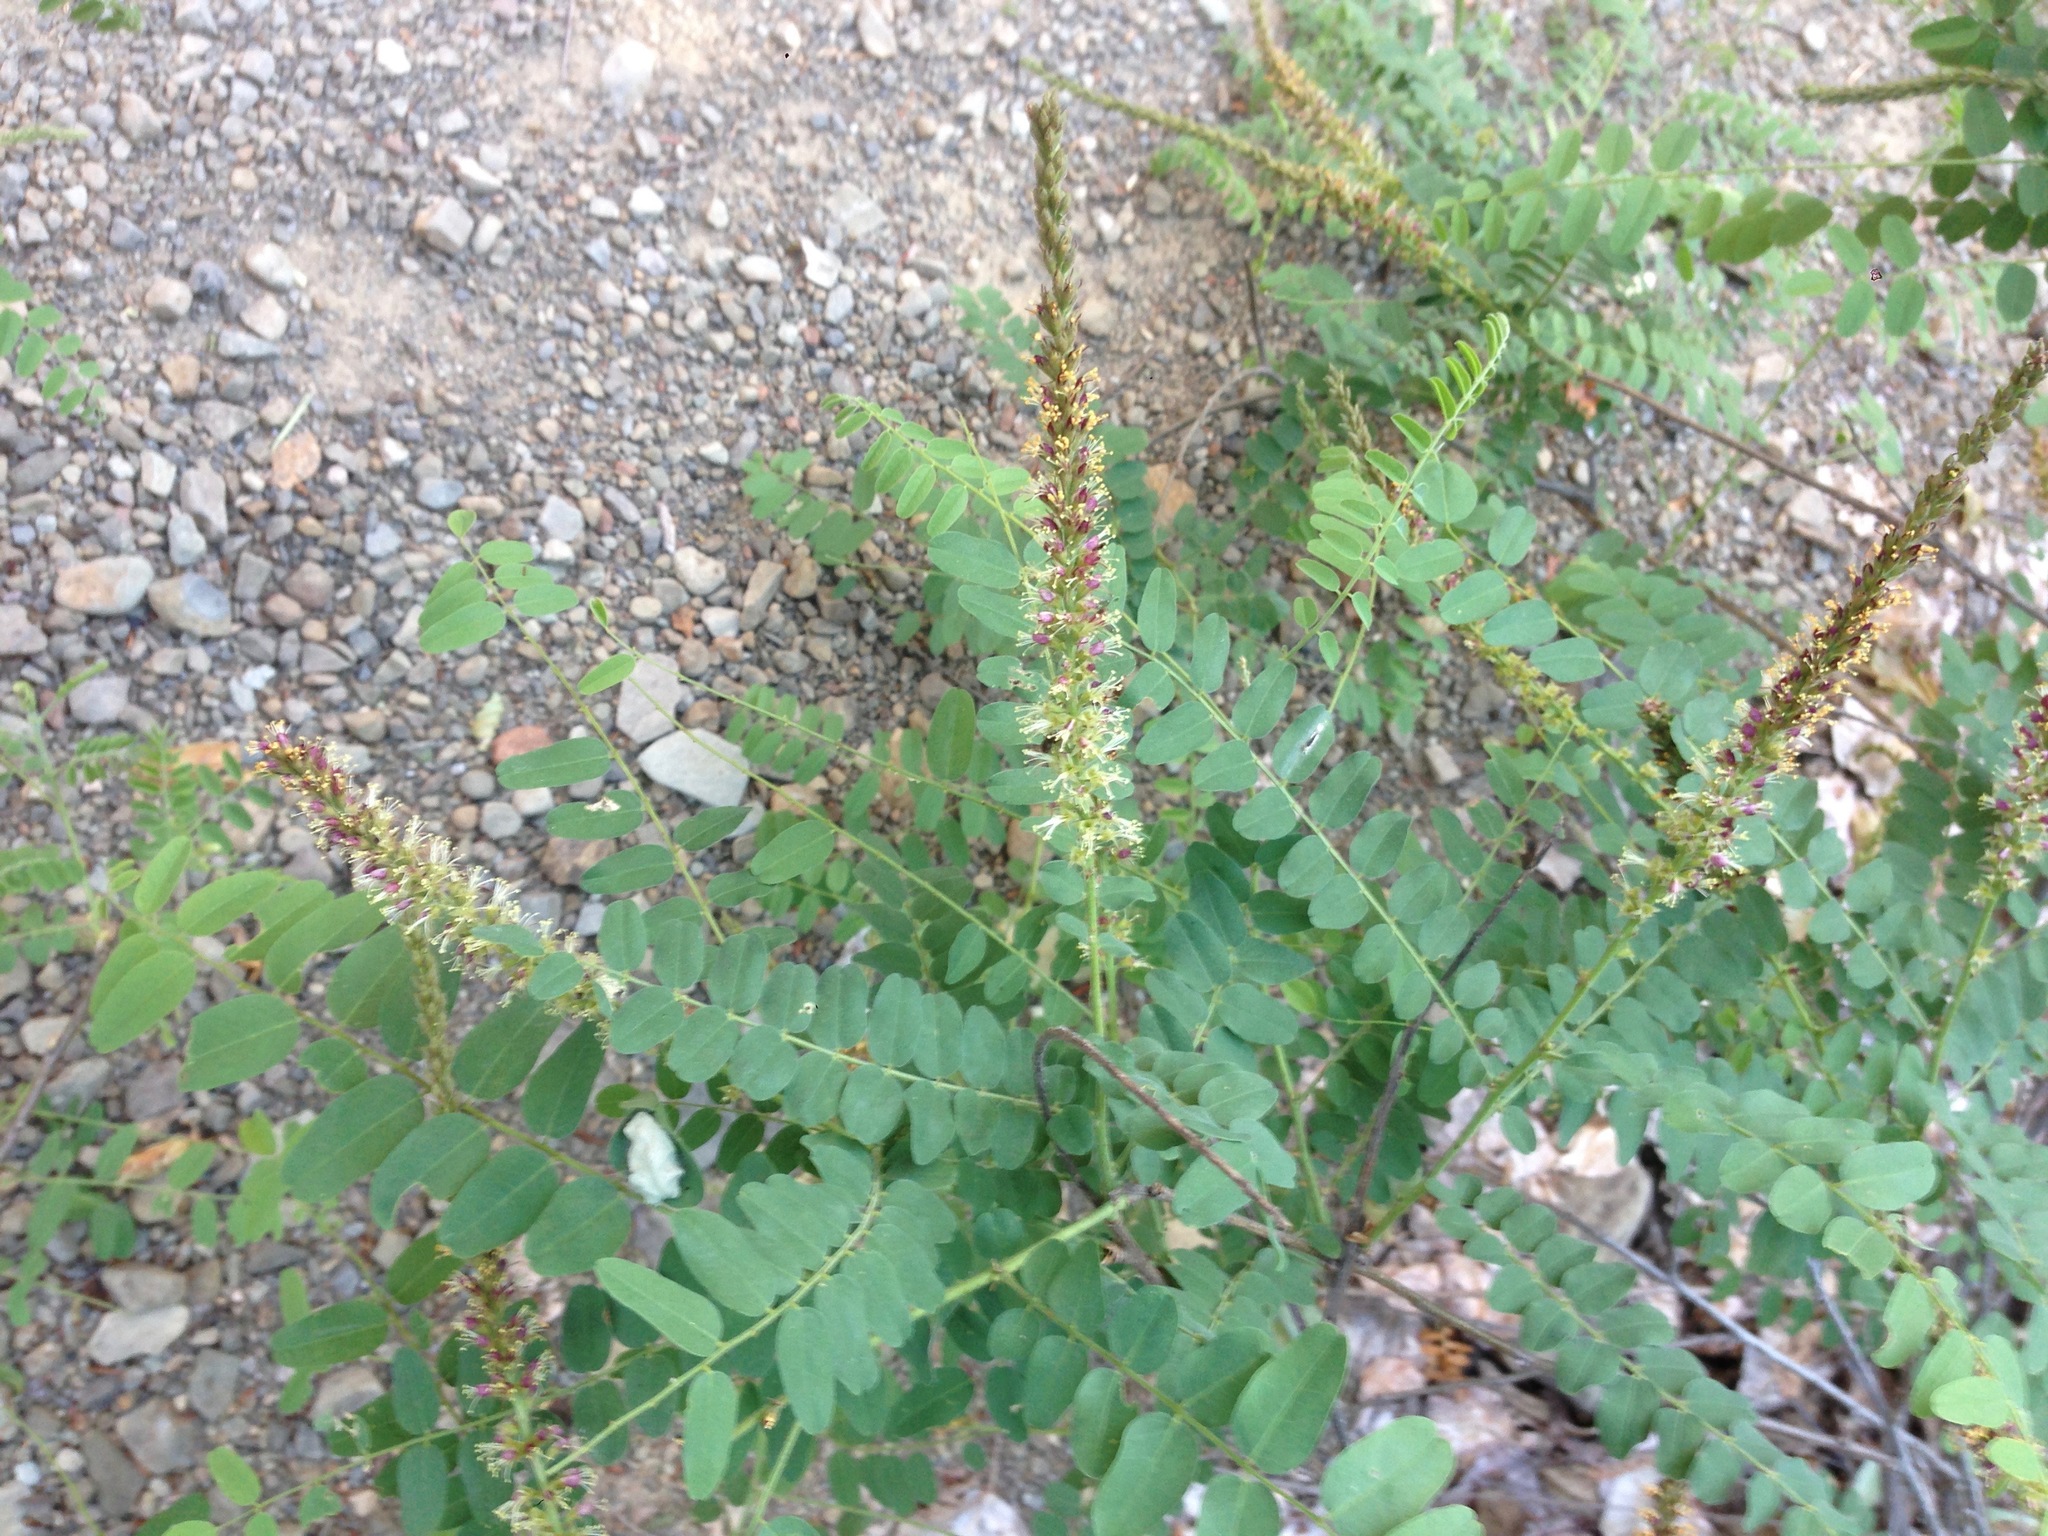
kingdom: Plantae
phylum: Tracheophyta
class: Magnoliopsida
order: Fabales
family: Fabaceae
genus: Amorpha
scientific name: Amorpha californica
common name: California indigobush
